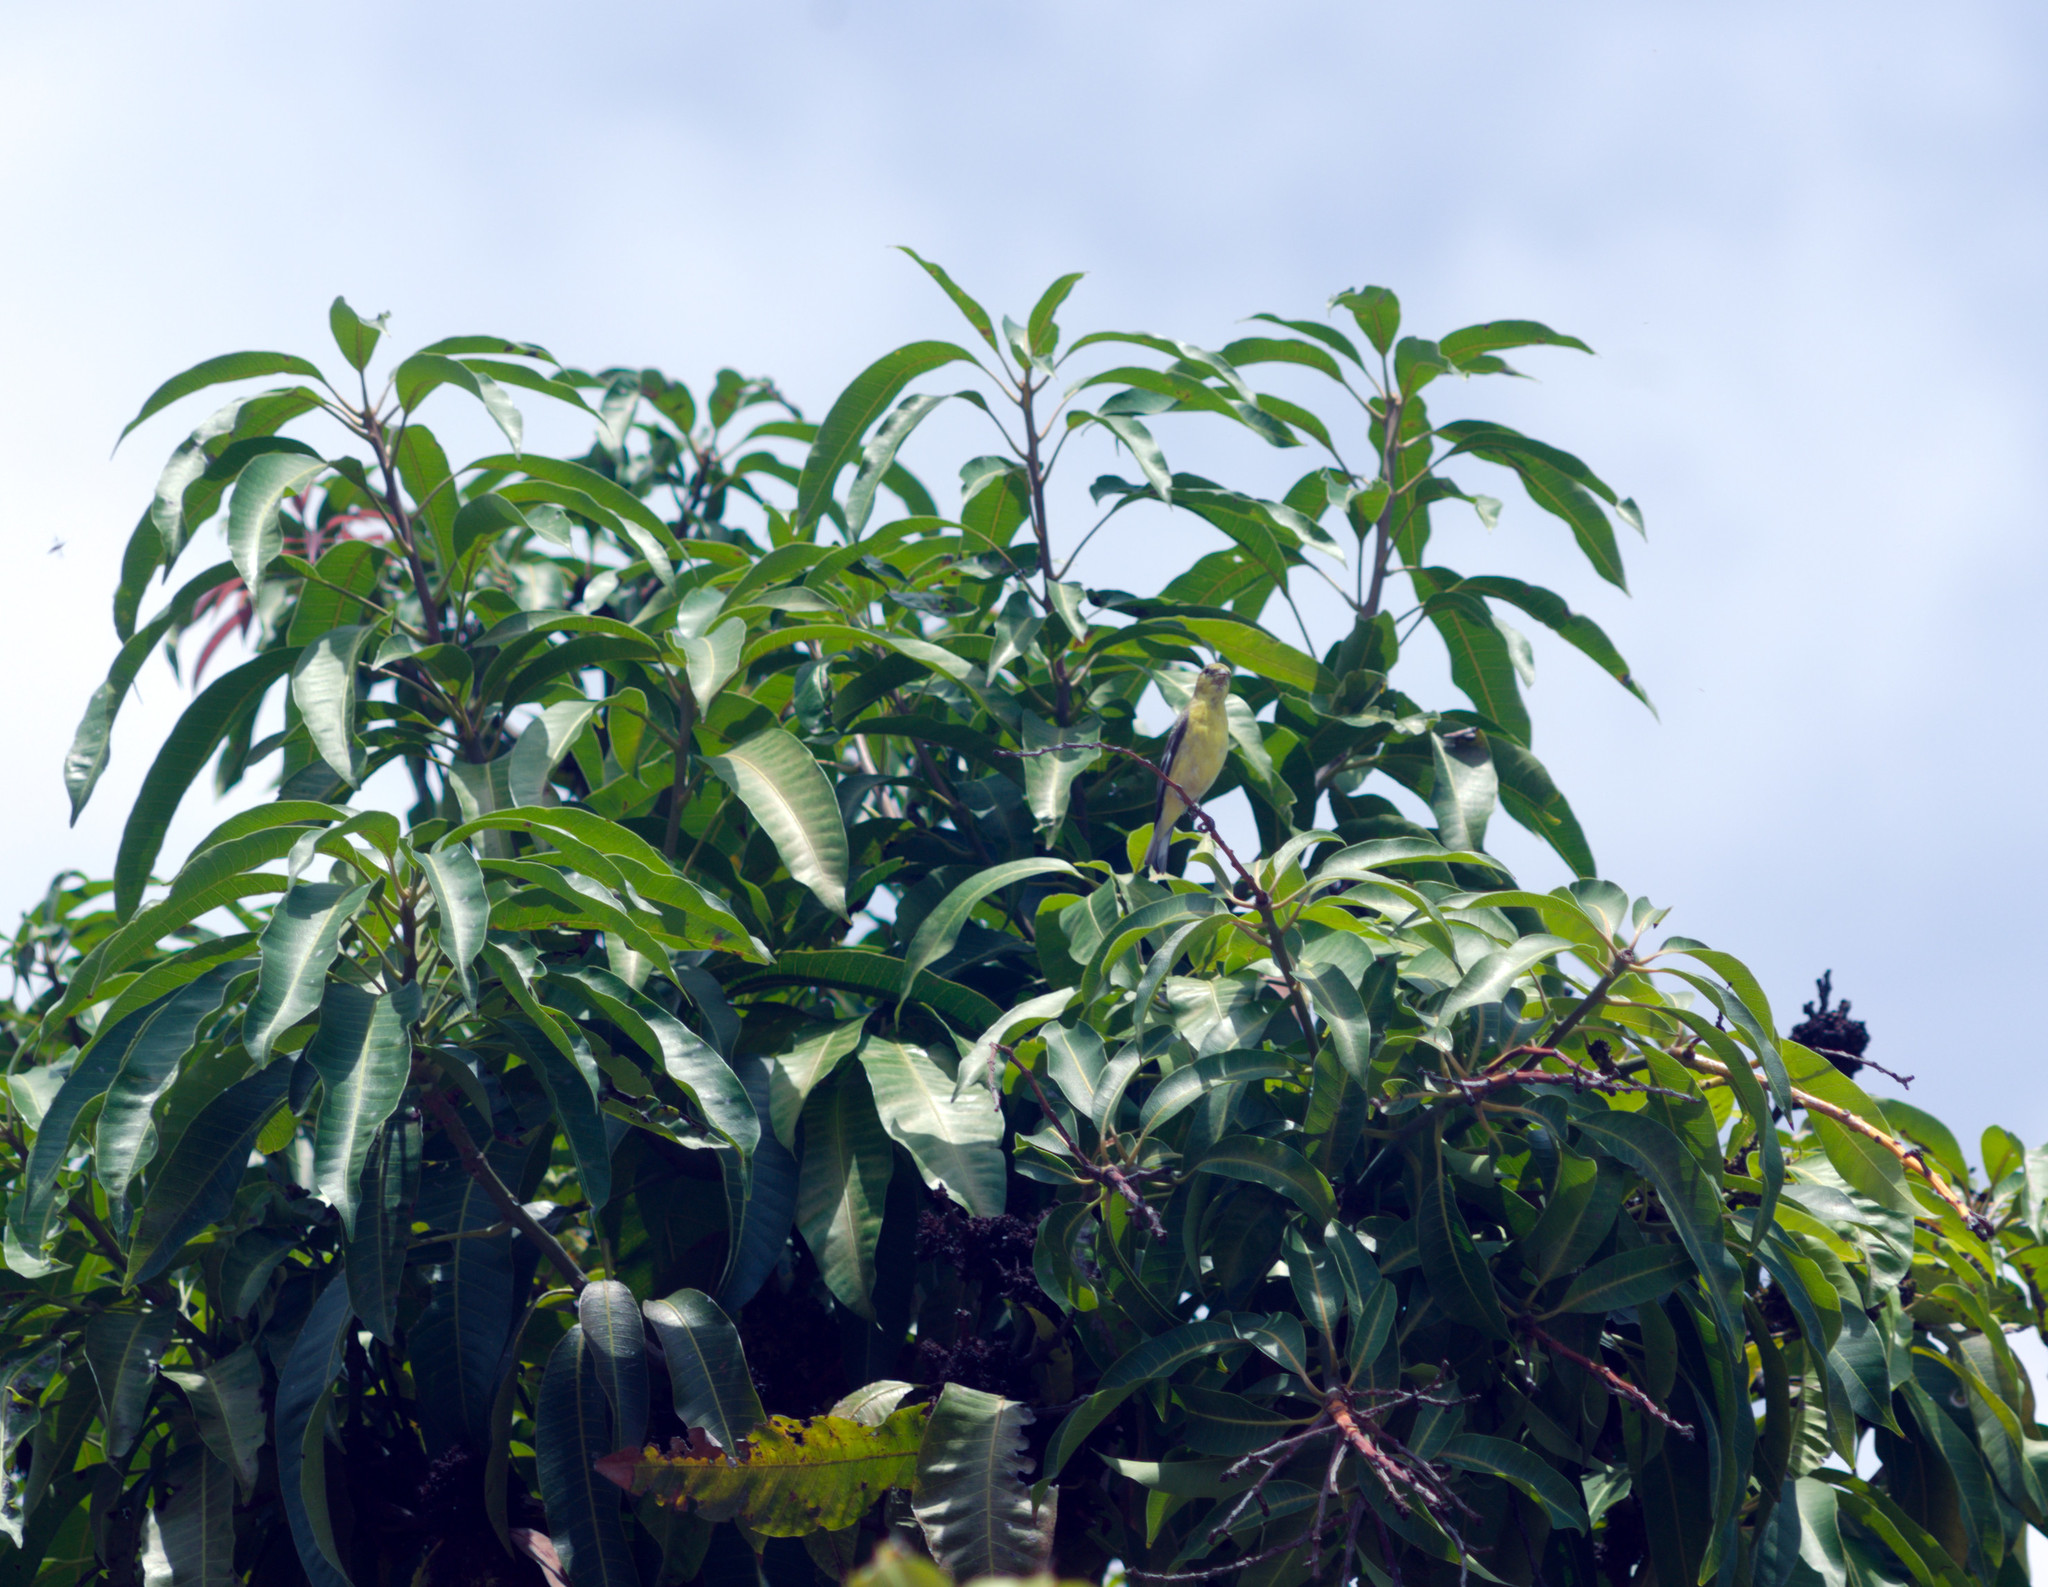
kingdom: Animalia
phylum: Chordata
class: Aves
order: Passeriformes
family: Thraupidae
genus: Sporophila
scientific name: Sporophila torqueola
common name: White-collared seedeater
